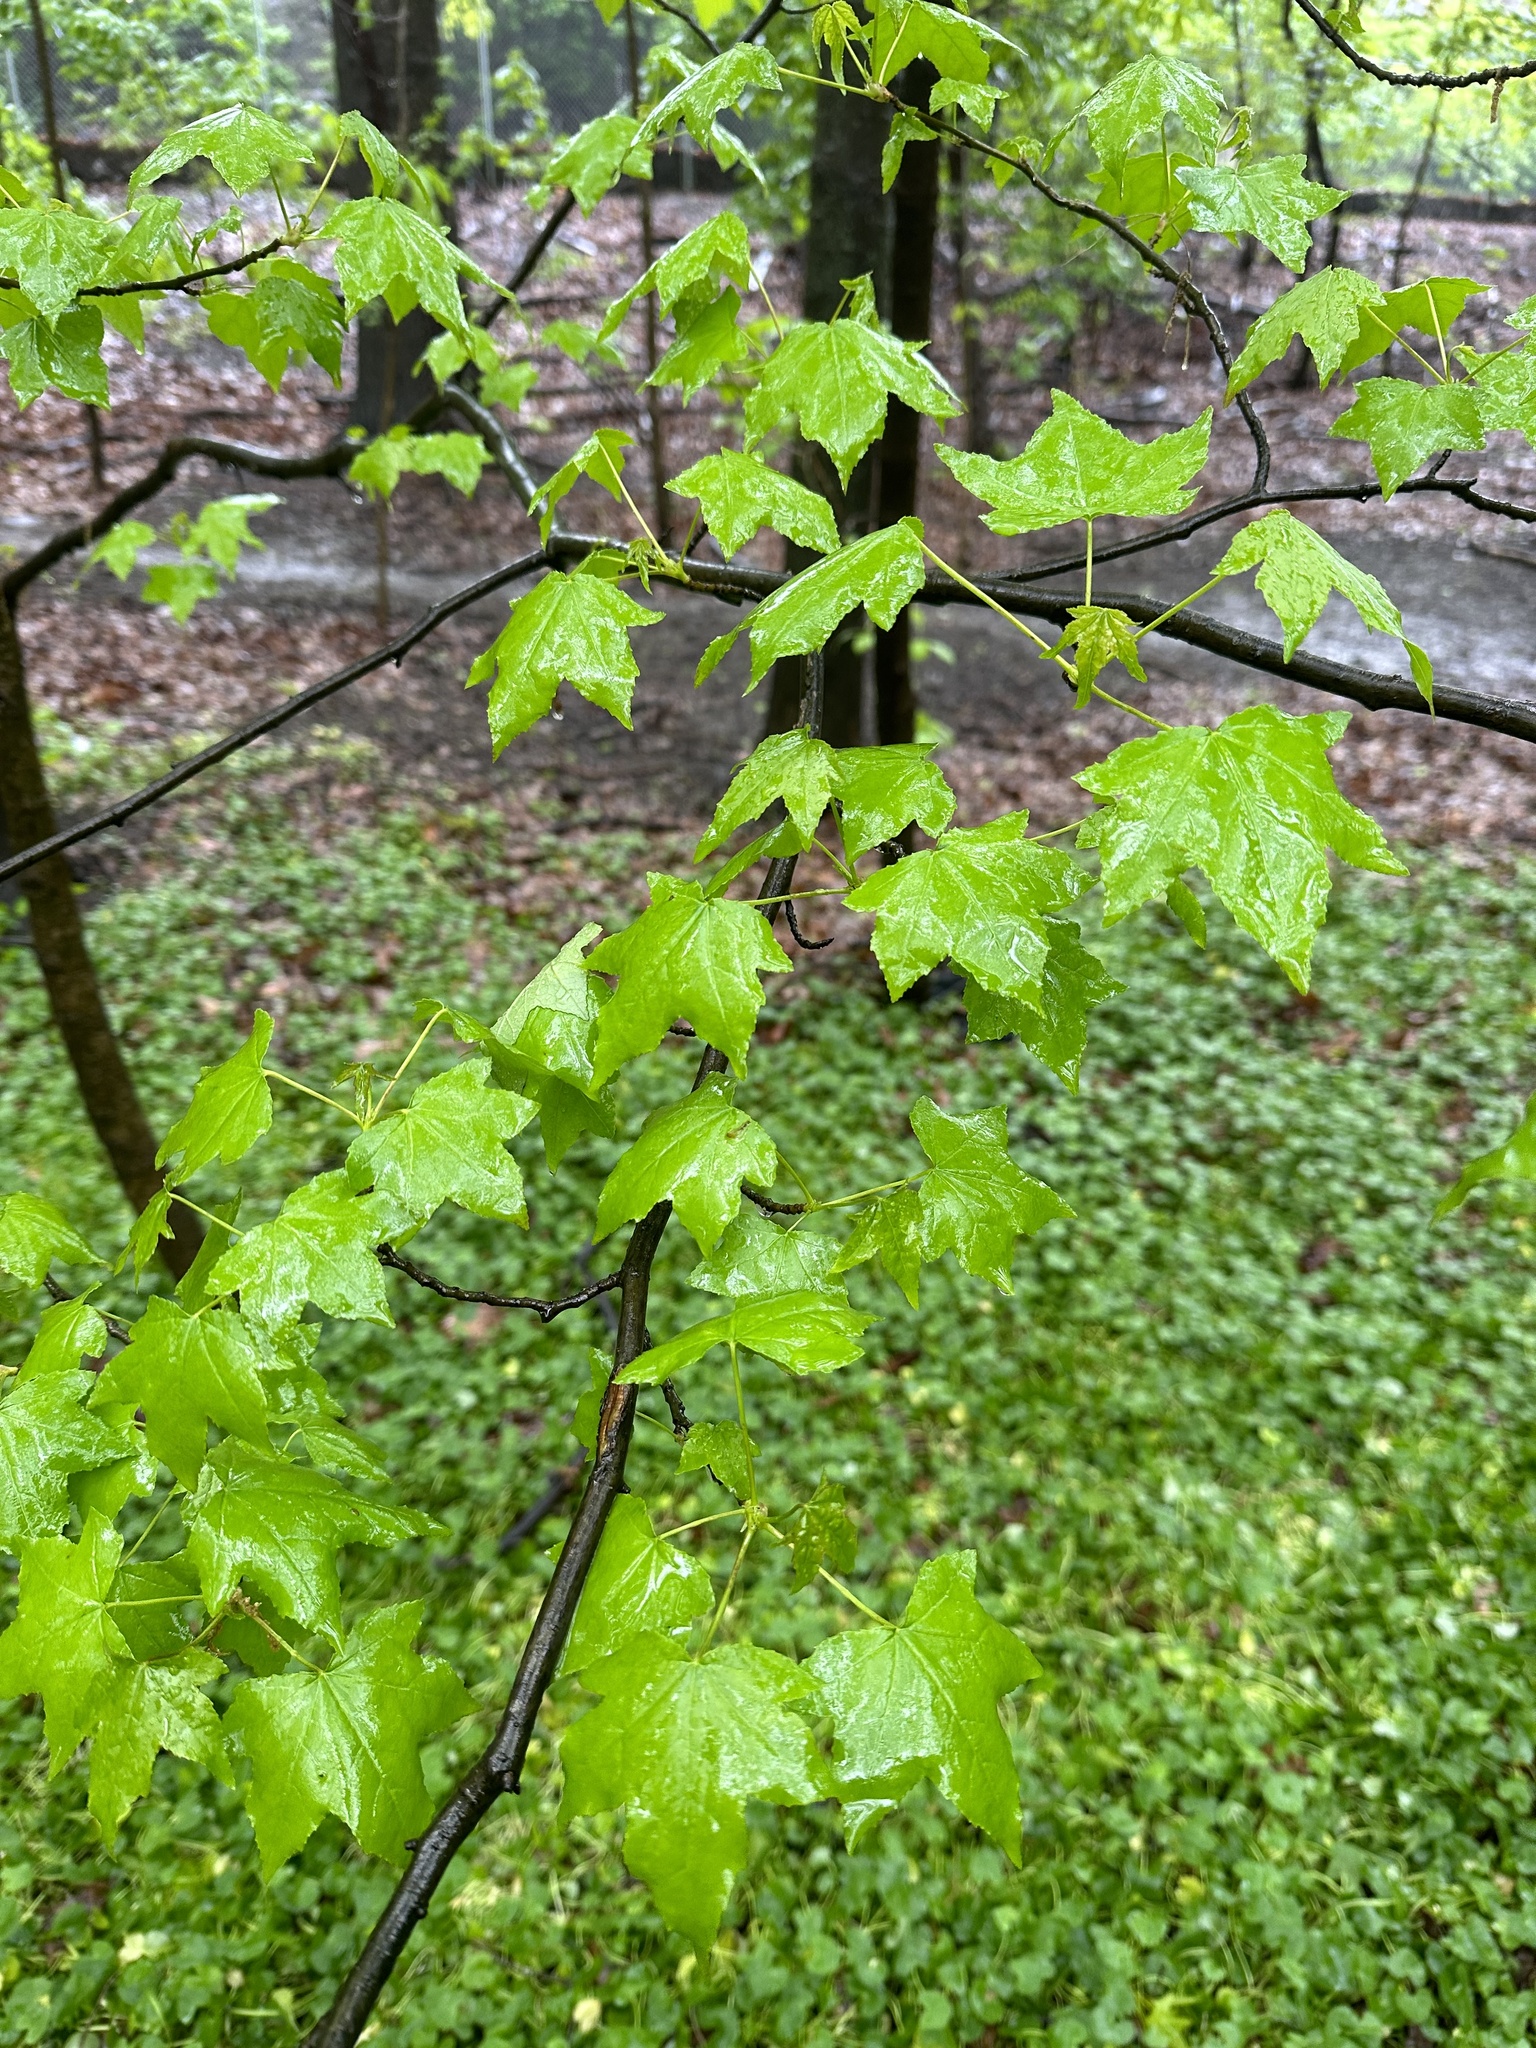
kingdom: Plantae
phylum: Tracheophyta
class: Magnoliopsida
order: Saxifragales
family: Altingiaceae
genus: Liquidambar
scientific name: Liquidambar styraciflua
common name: Sweet gum
